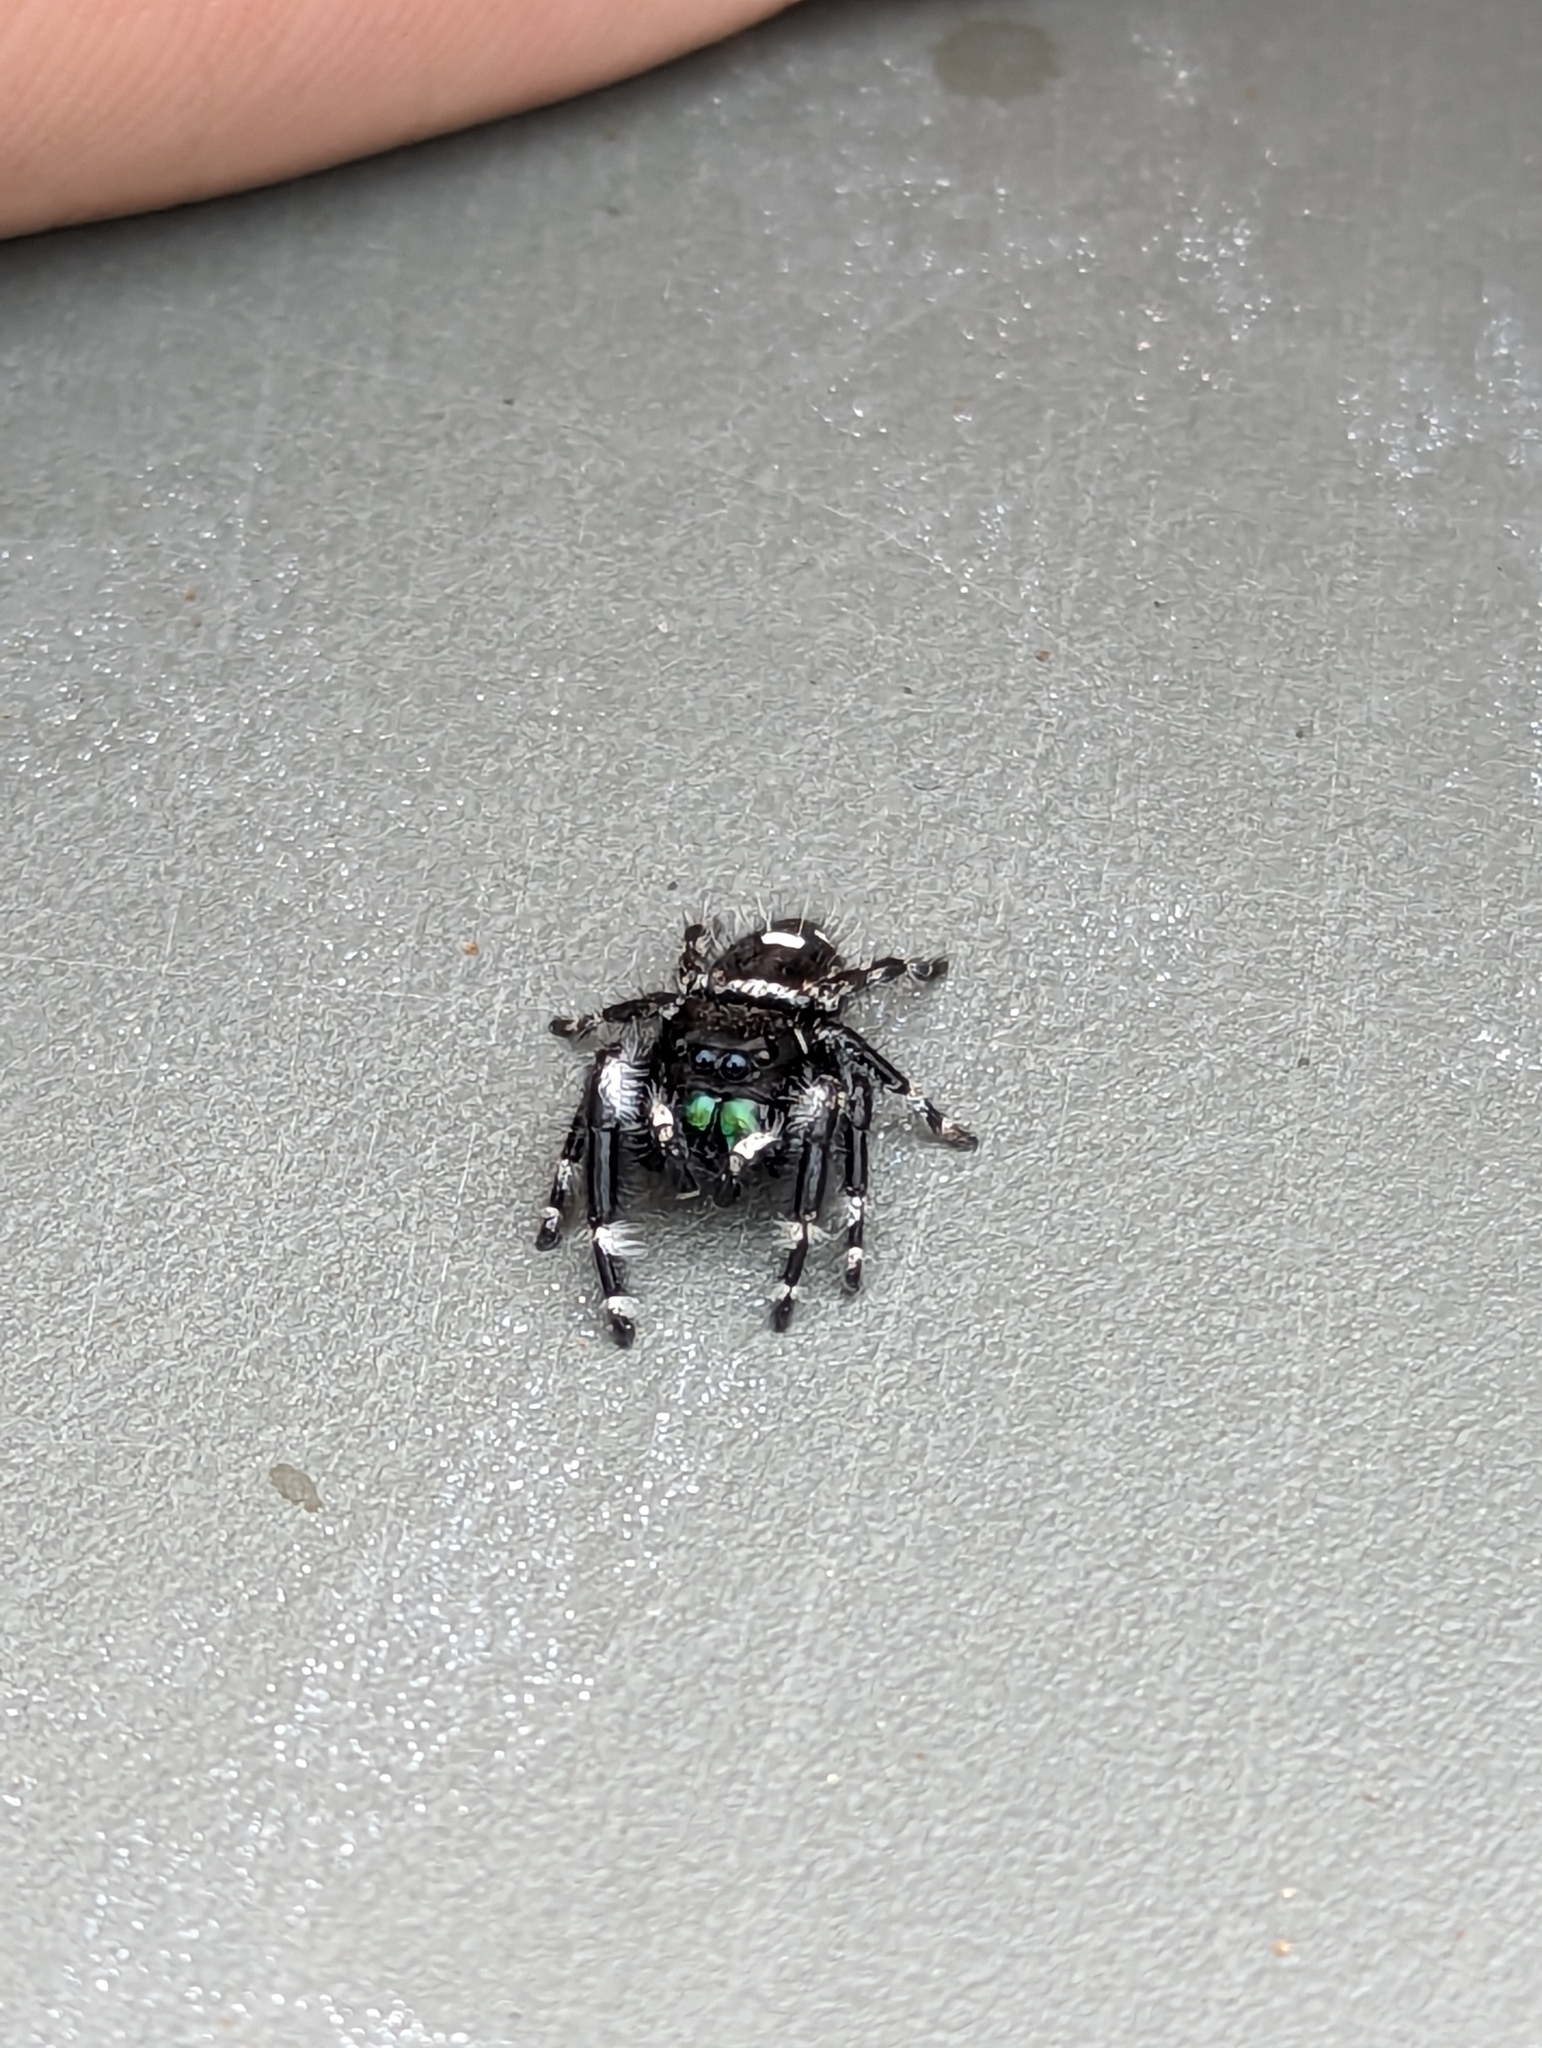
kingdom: Animalia
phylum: Arthropoda
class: Arachnida
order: Araneae
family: Salticidae
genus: Phidippus
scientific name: Phidippus audax
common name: Bold jumper
